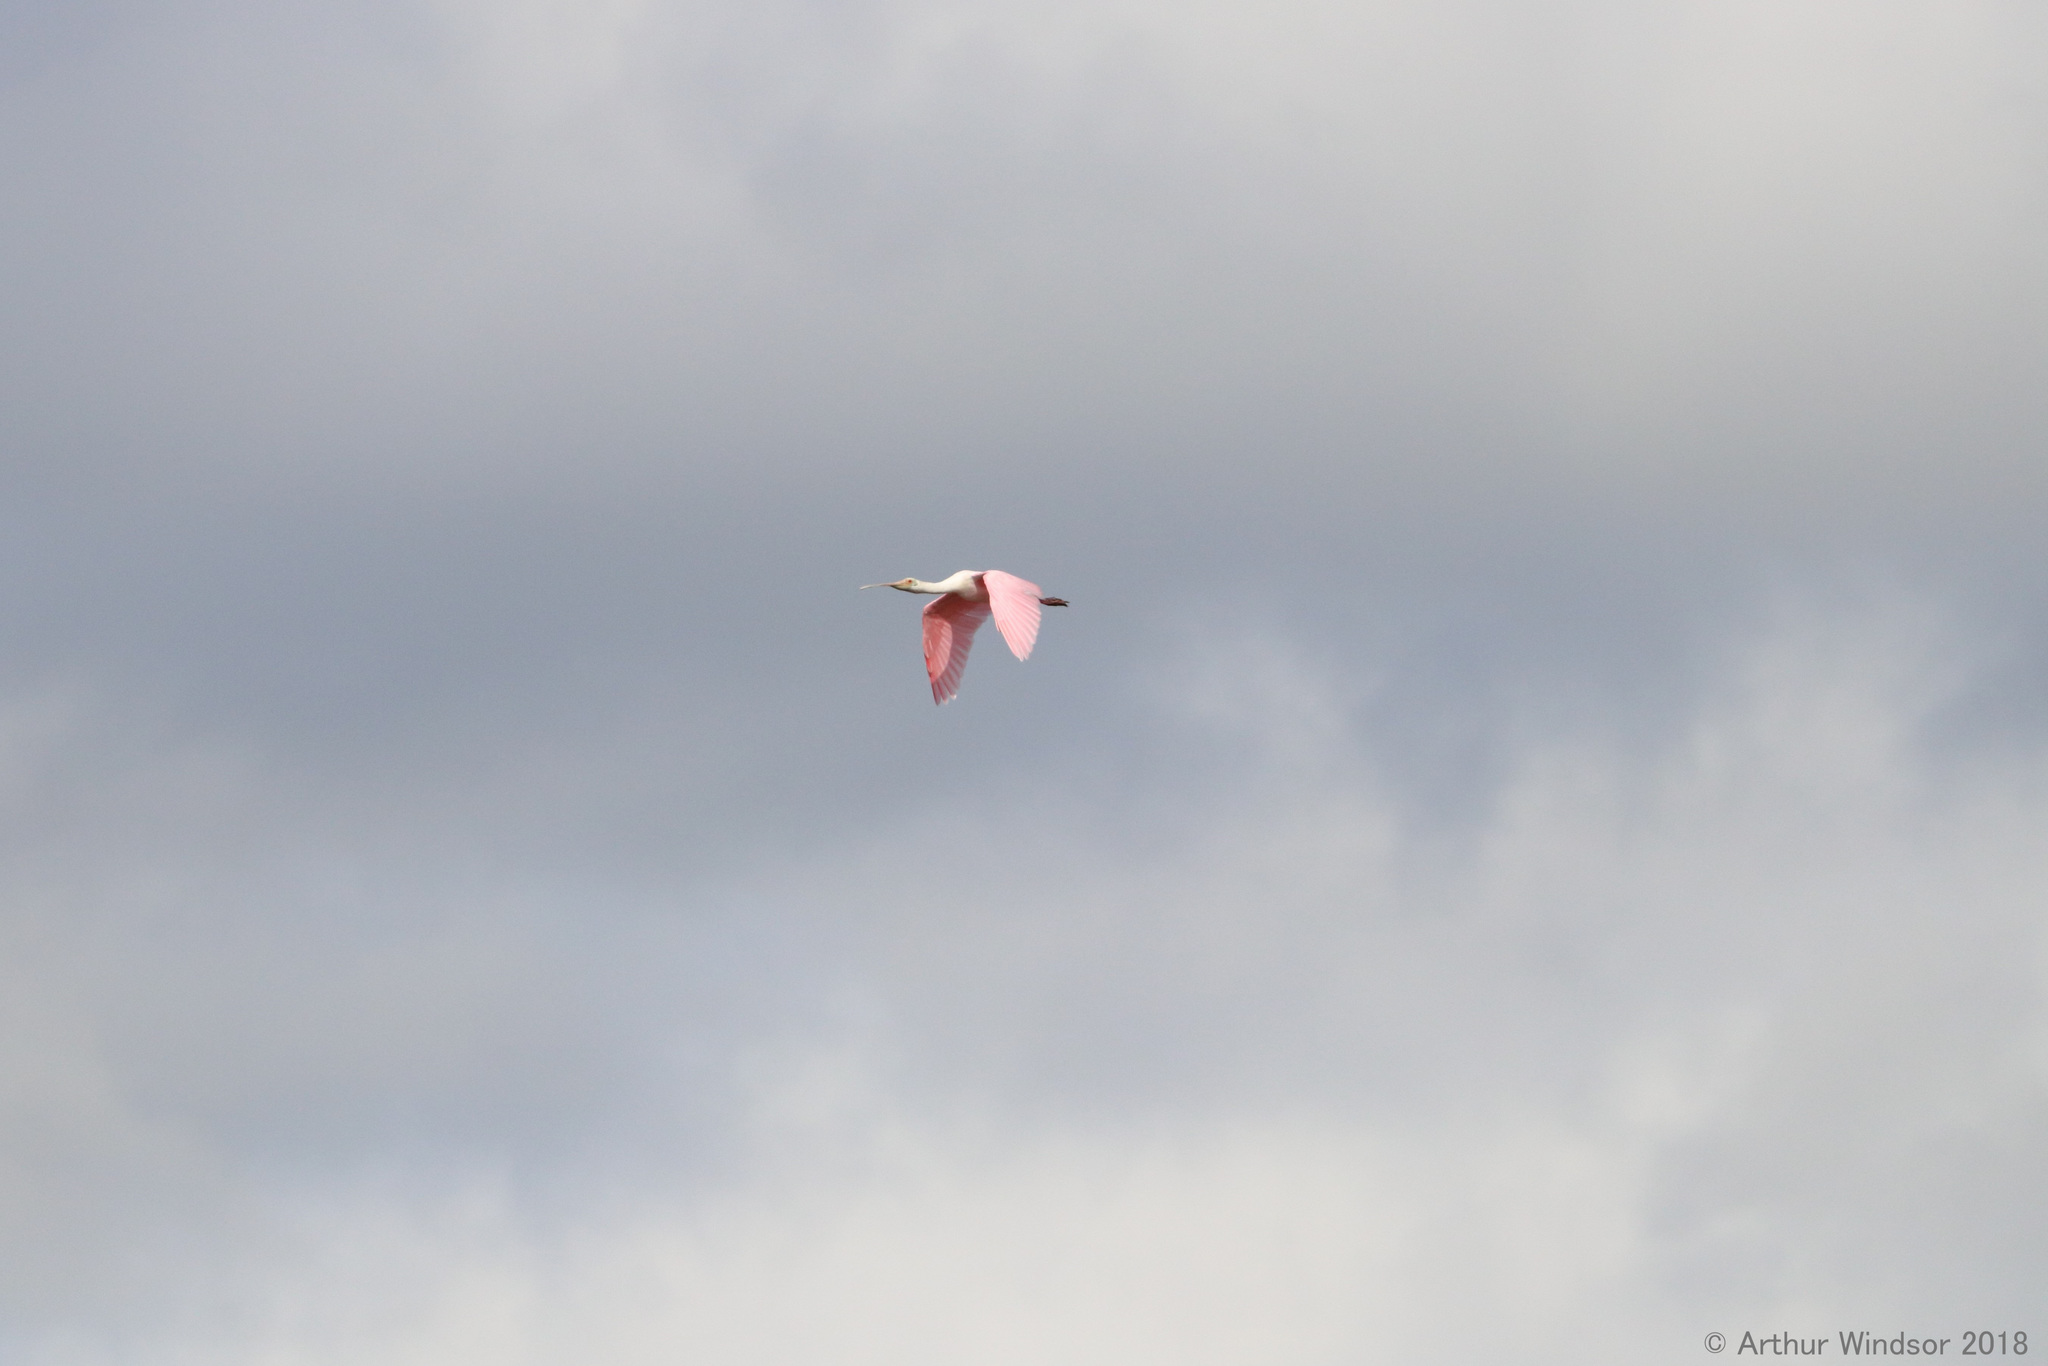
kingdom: Animalia
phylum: Chordata
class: Aves
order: Pelecaniformes
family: Threskiornithidae
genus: Platalea
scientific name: Platalea ajaja
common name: Roseate spoonbill
